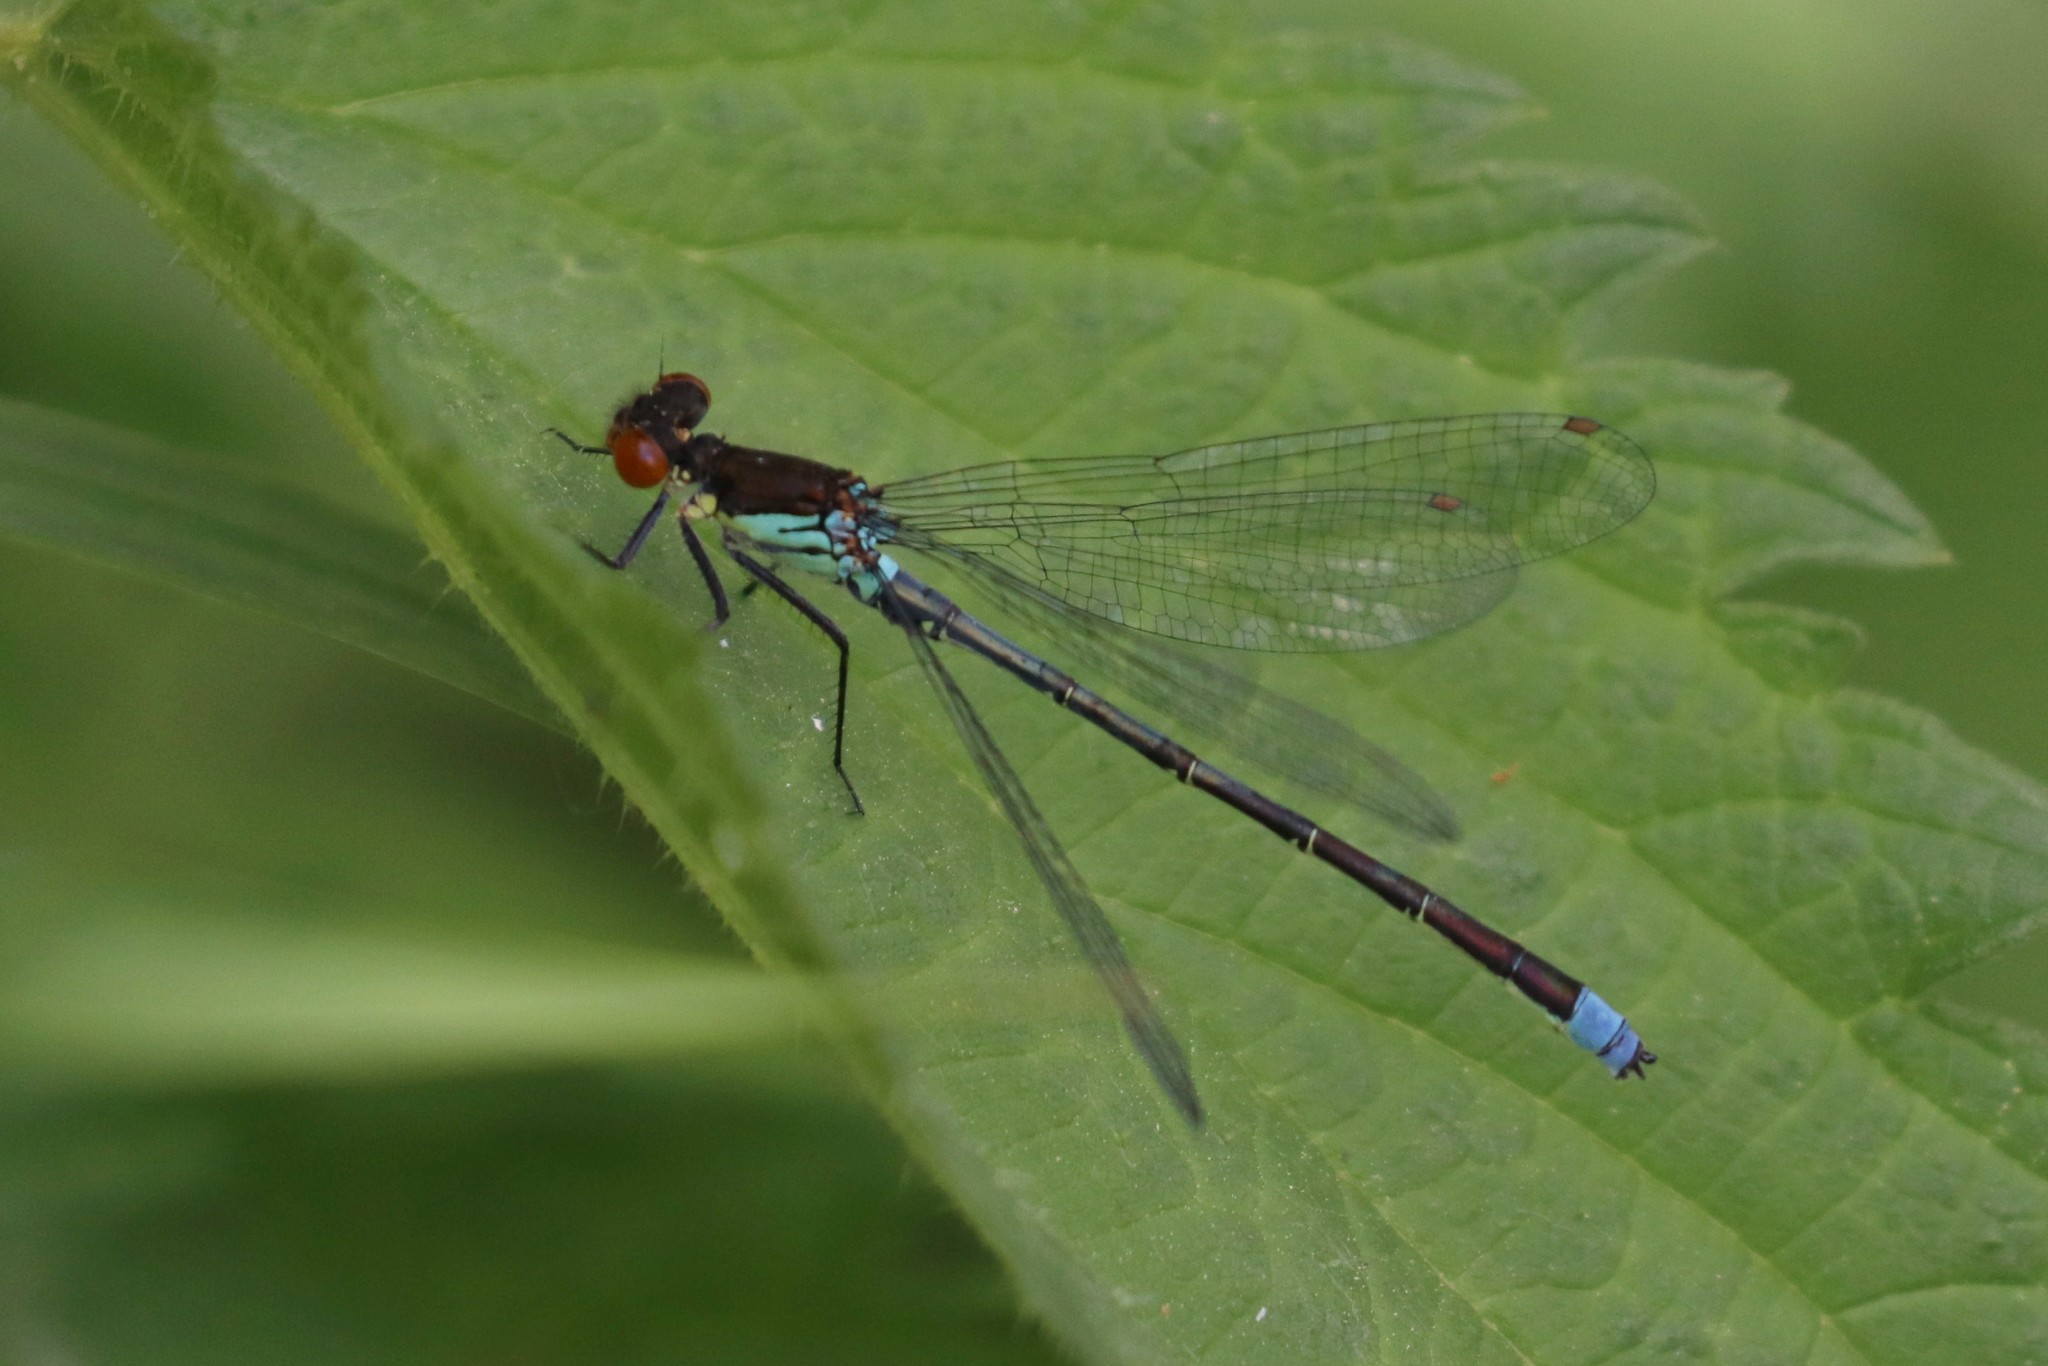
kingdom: Animalia
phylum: Arthropoda
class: Insecta
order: Odonata
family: Coenagrionidae
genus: Erythromma
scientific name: Erythromma najas
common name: Red-eyed damselfly
